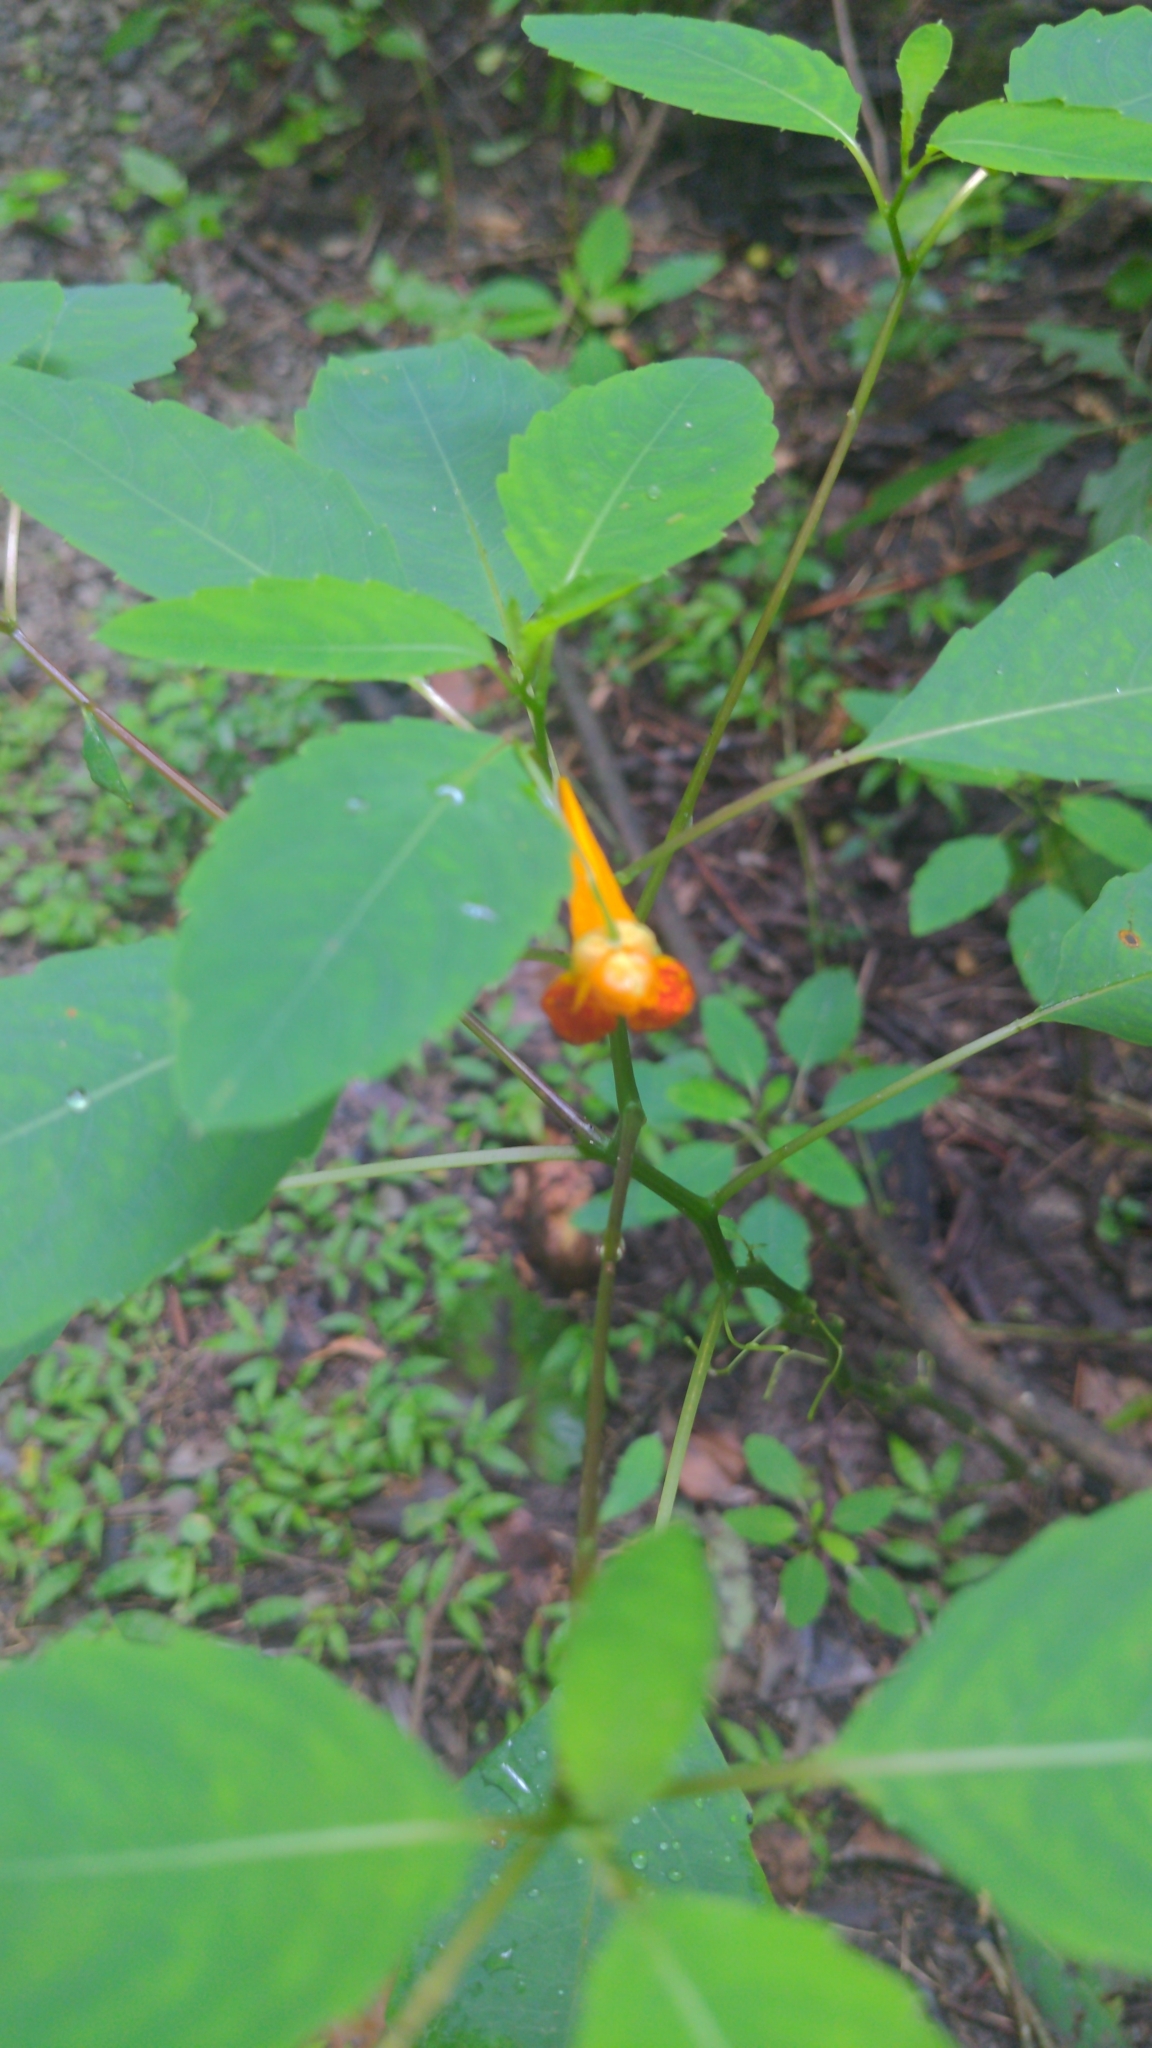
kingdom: Plantae
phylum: Tracheophyta
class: Magnoliopsida
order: Ericales
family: Balsaminaceae
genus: Impatiens
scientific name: Impatiens capensis
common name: Orange balsam
